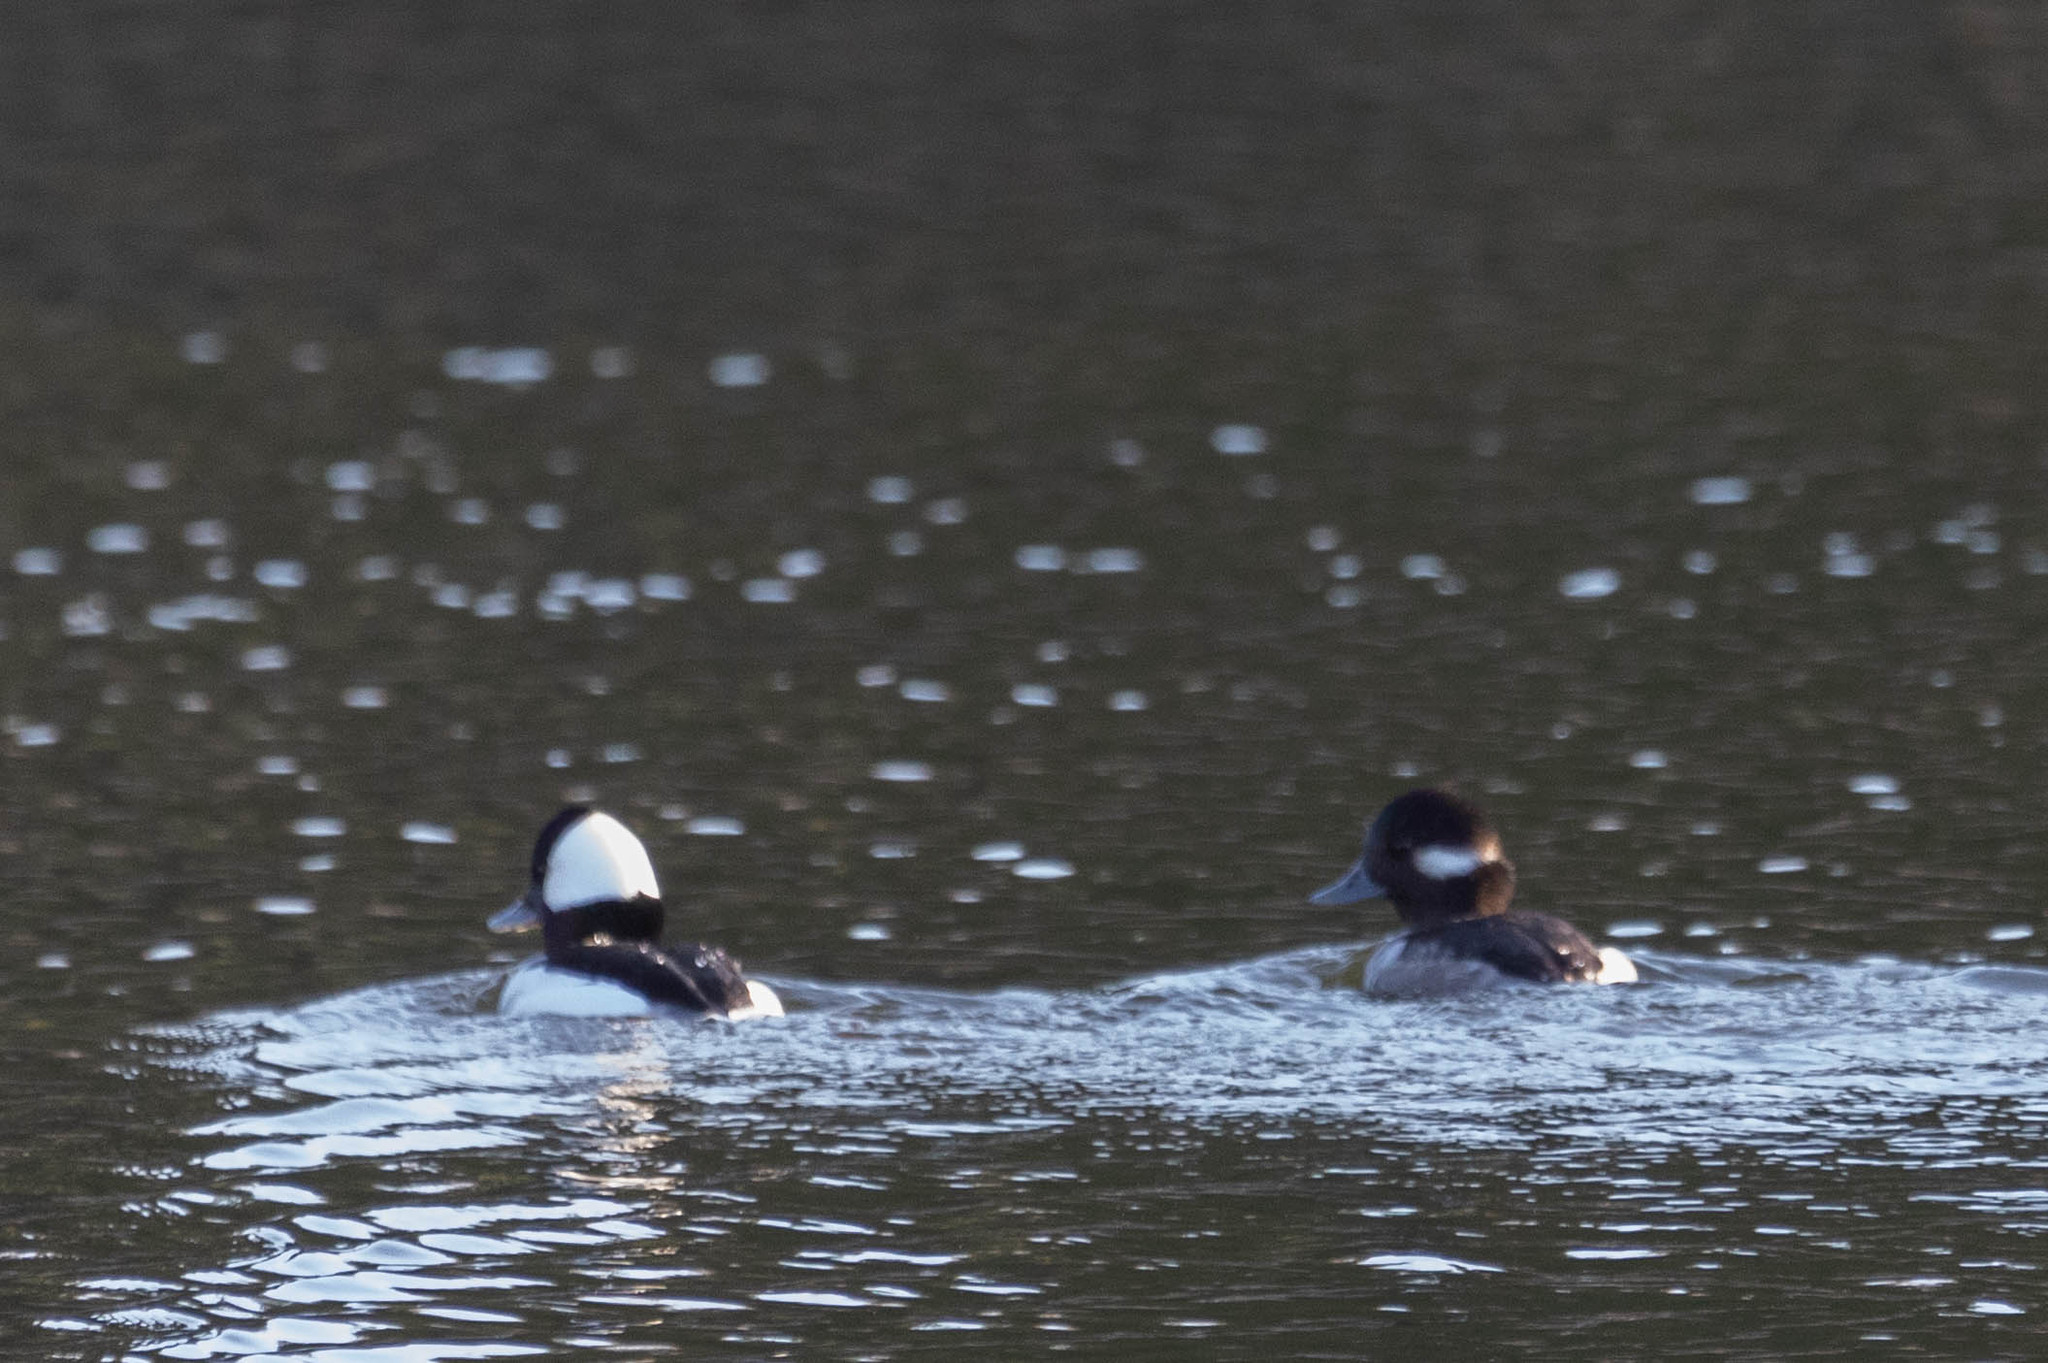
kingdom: Animalia
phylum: Chordata
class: Aves
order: Anseriformes
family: Anatidae
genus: Bucephala
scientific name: Bucephala albeola
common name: Bufflehead
